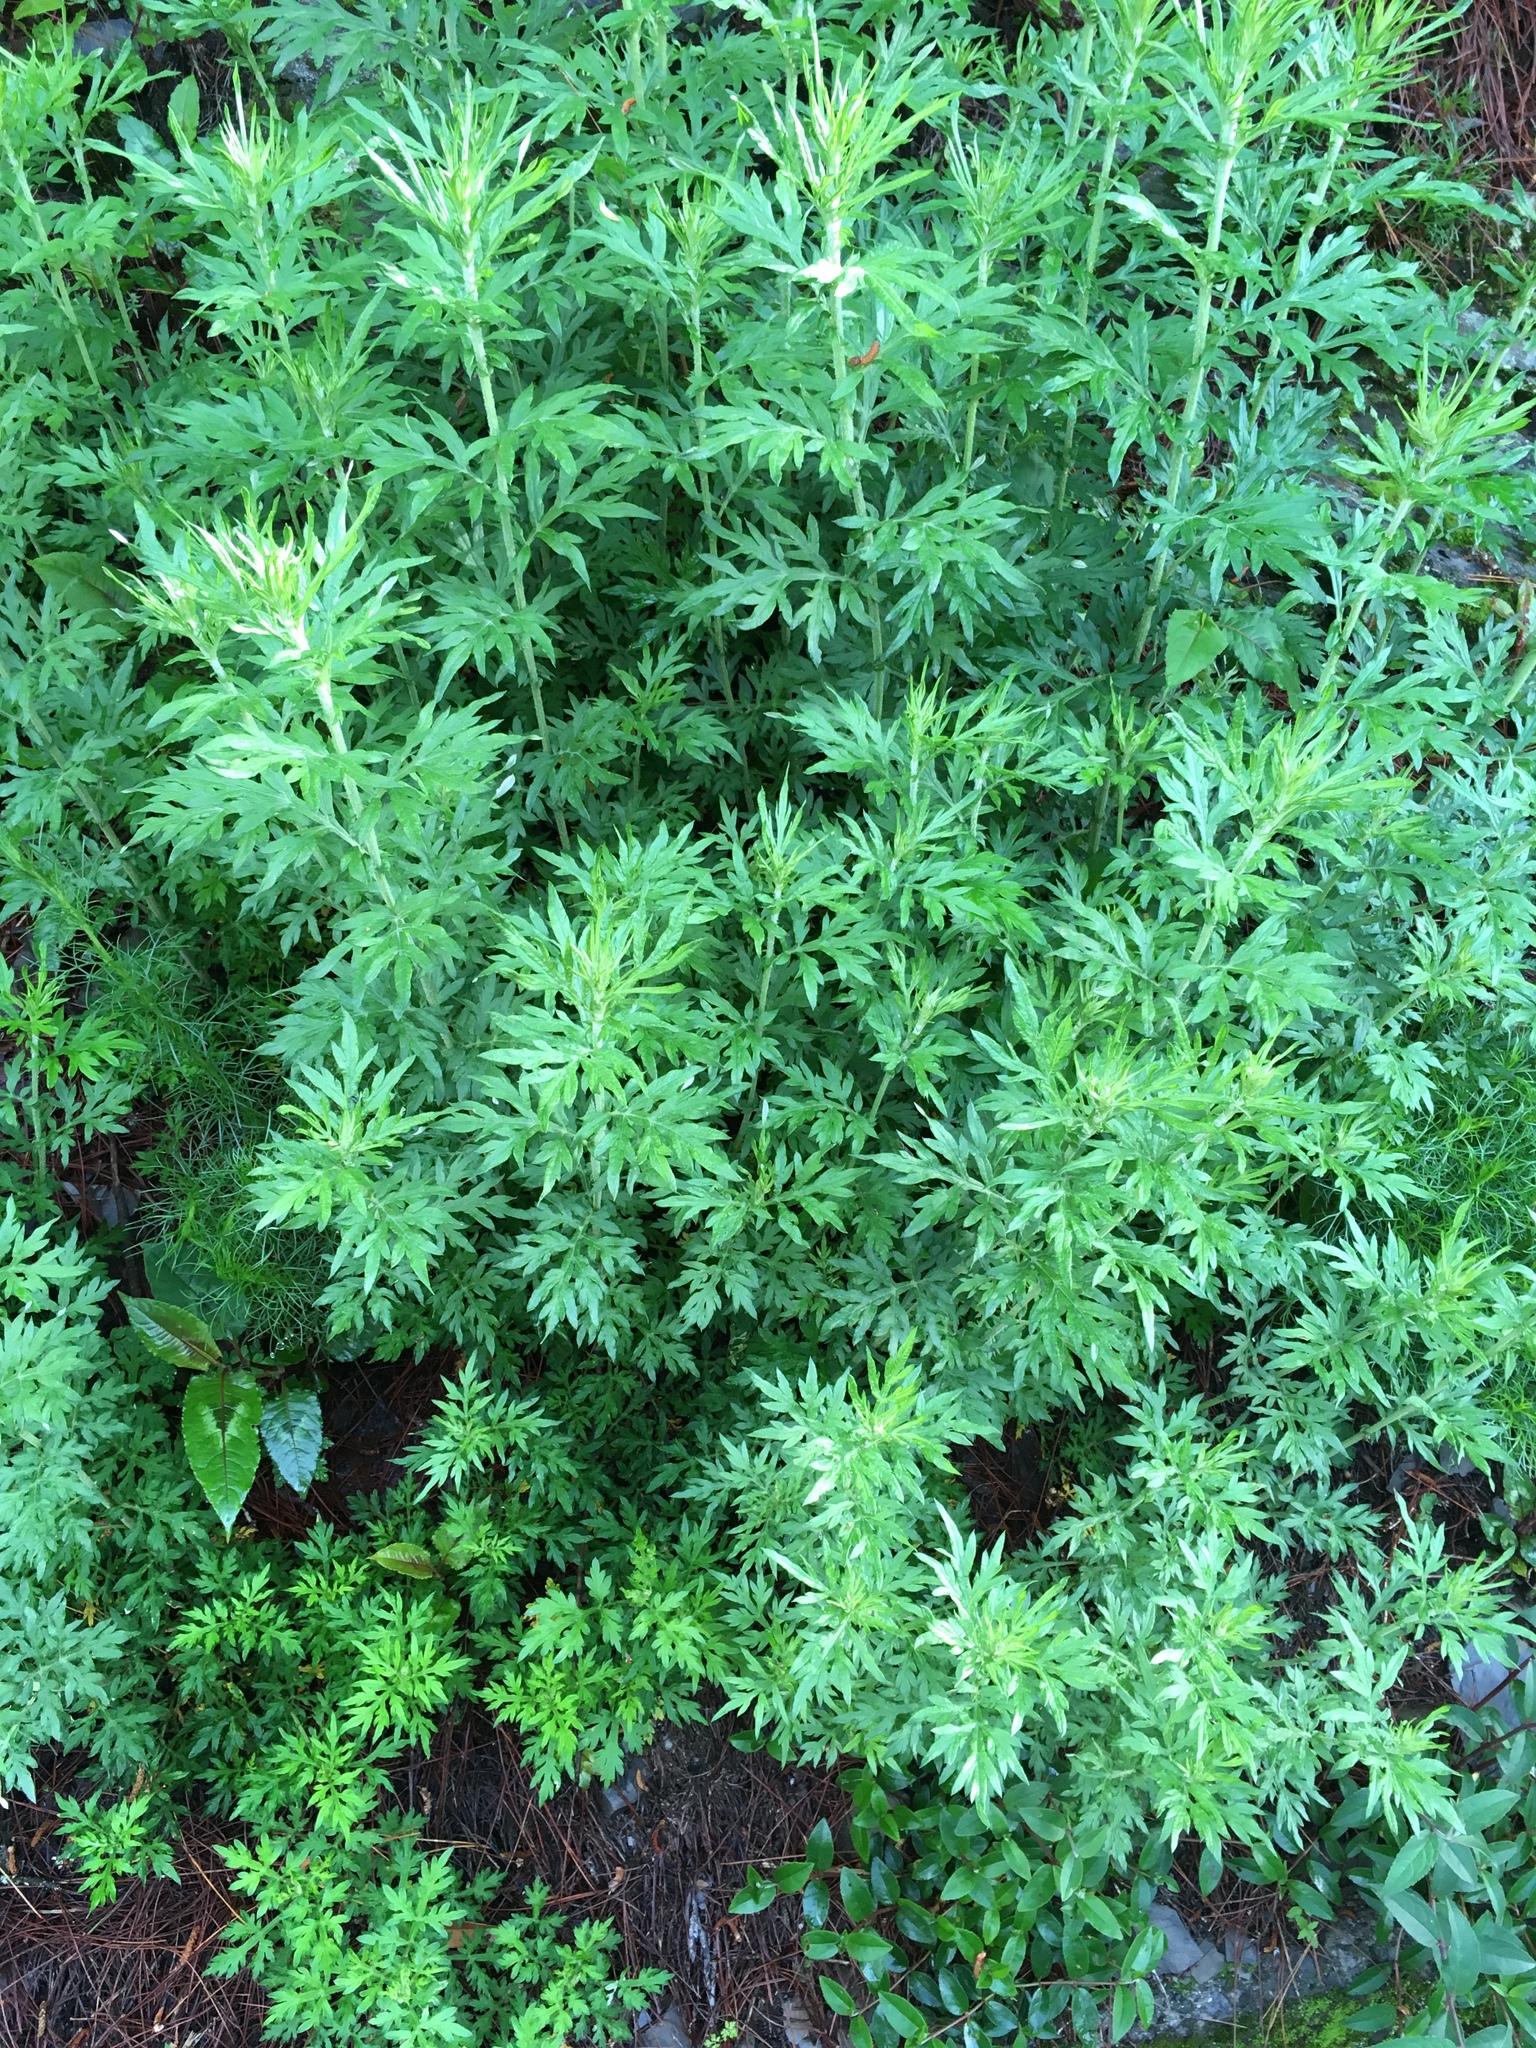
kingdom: Plantae
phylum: Tracheophyta
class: Magnoliopsida
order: Asterales
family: Asteraceae
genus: Artemisia
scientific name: Artemisia indica
